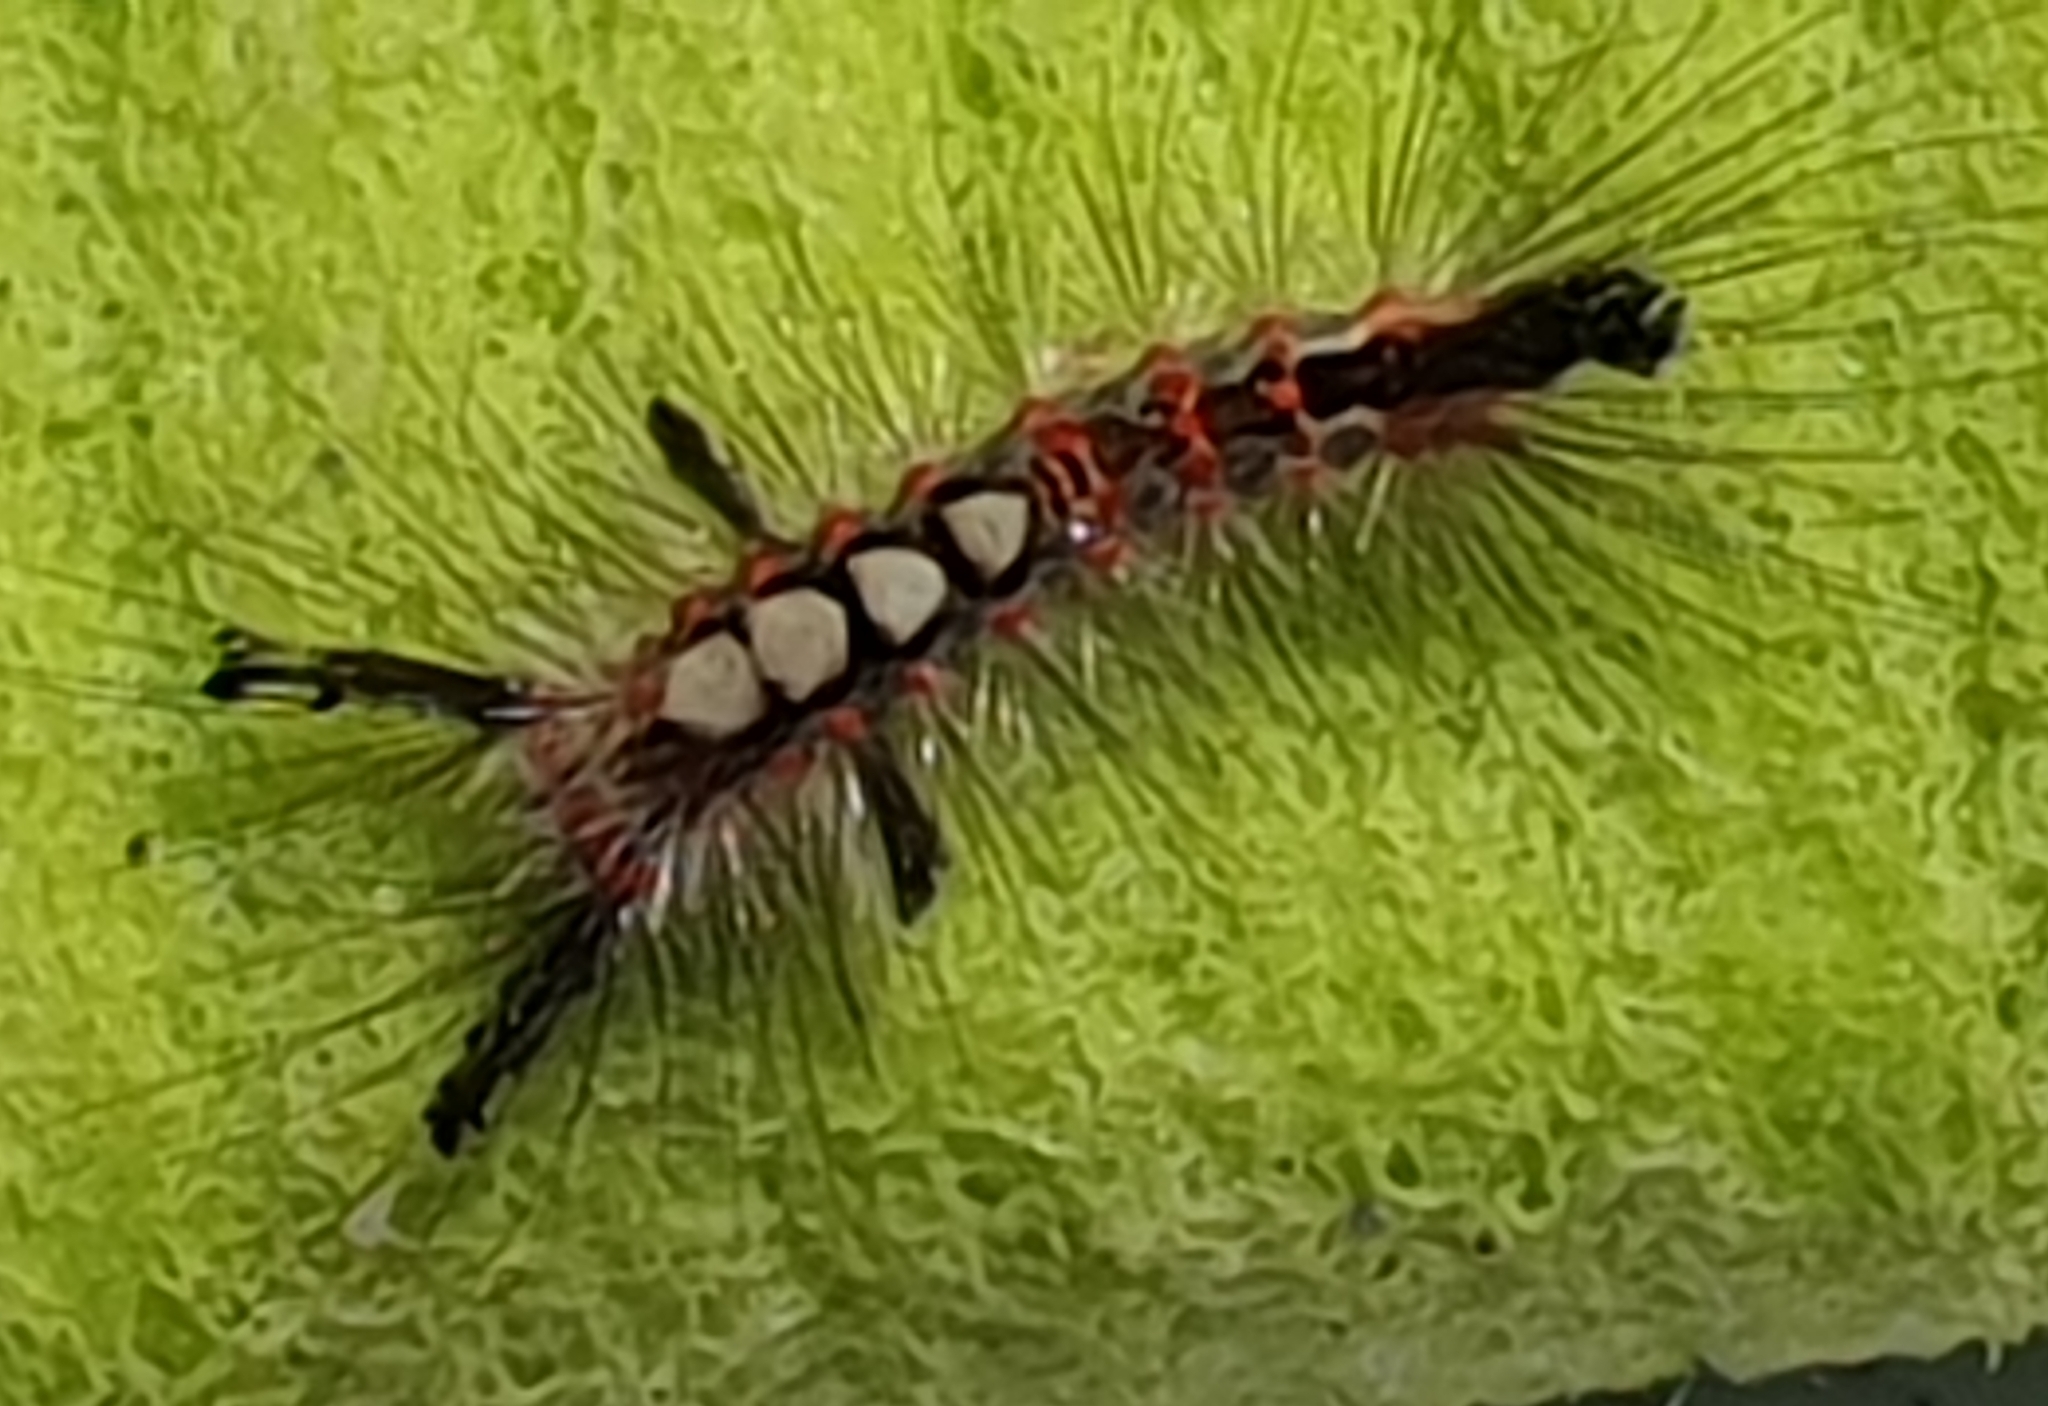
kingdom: Animalia
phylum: Arthropoda
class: Insecta
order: Lepidoptera
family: Erebidae
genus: Orgyia
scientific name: Orgyia antiqua
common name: Vapourer
